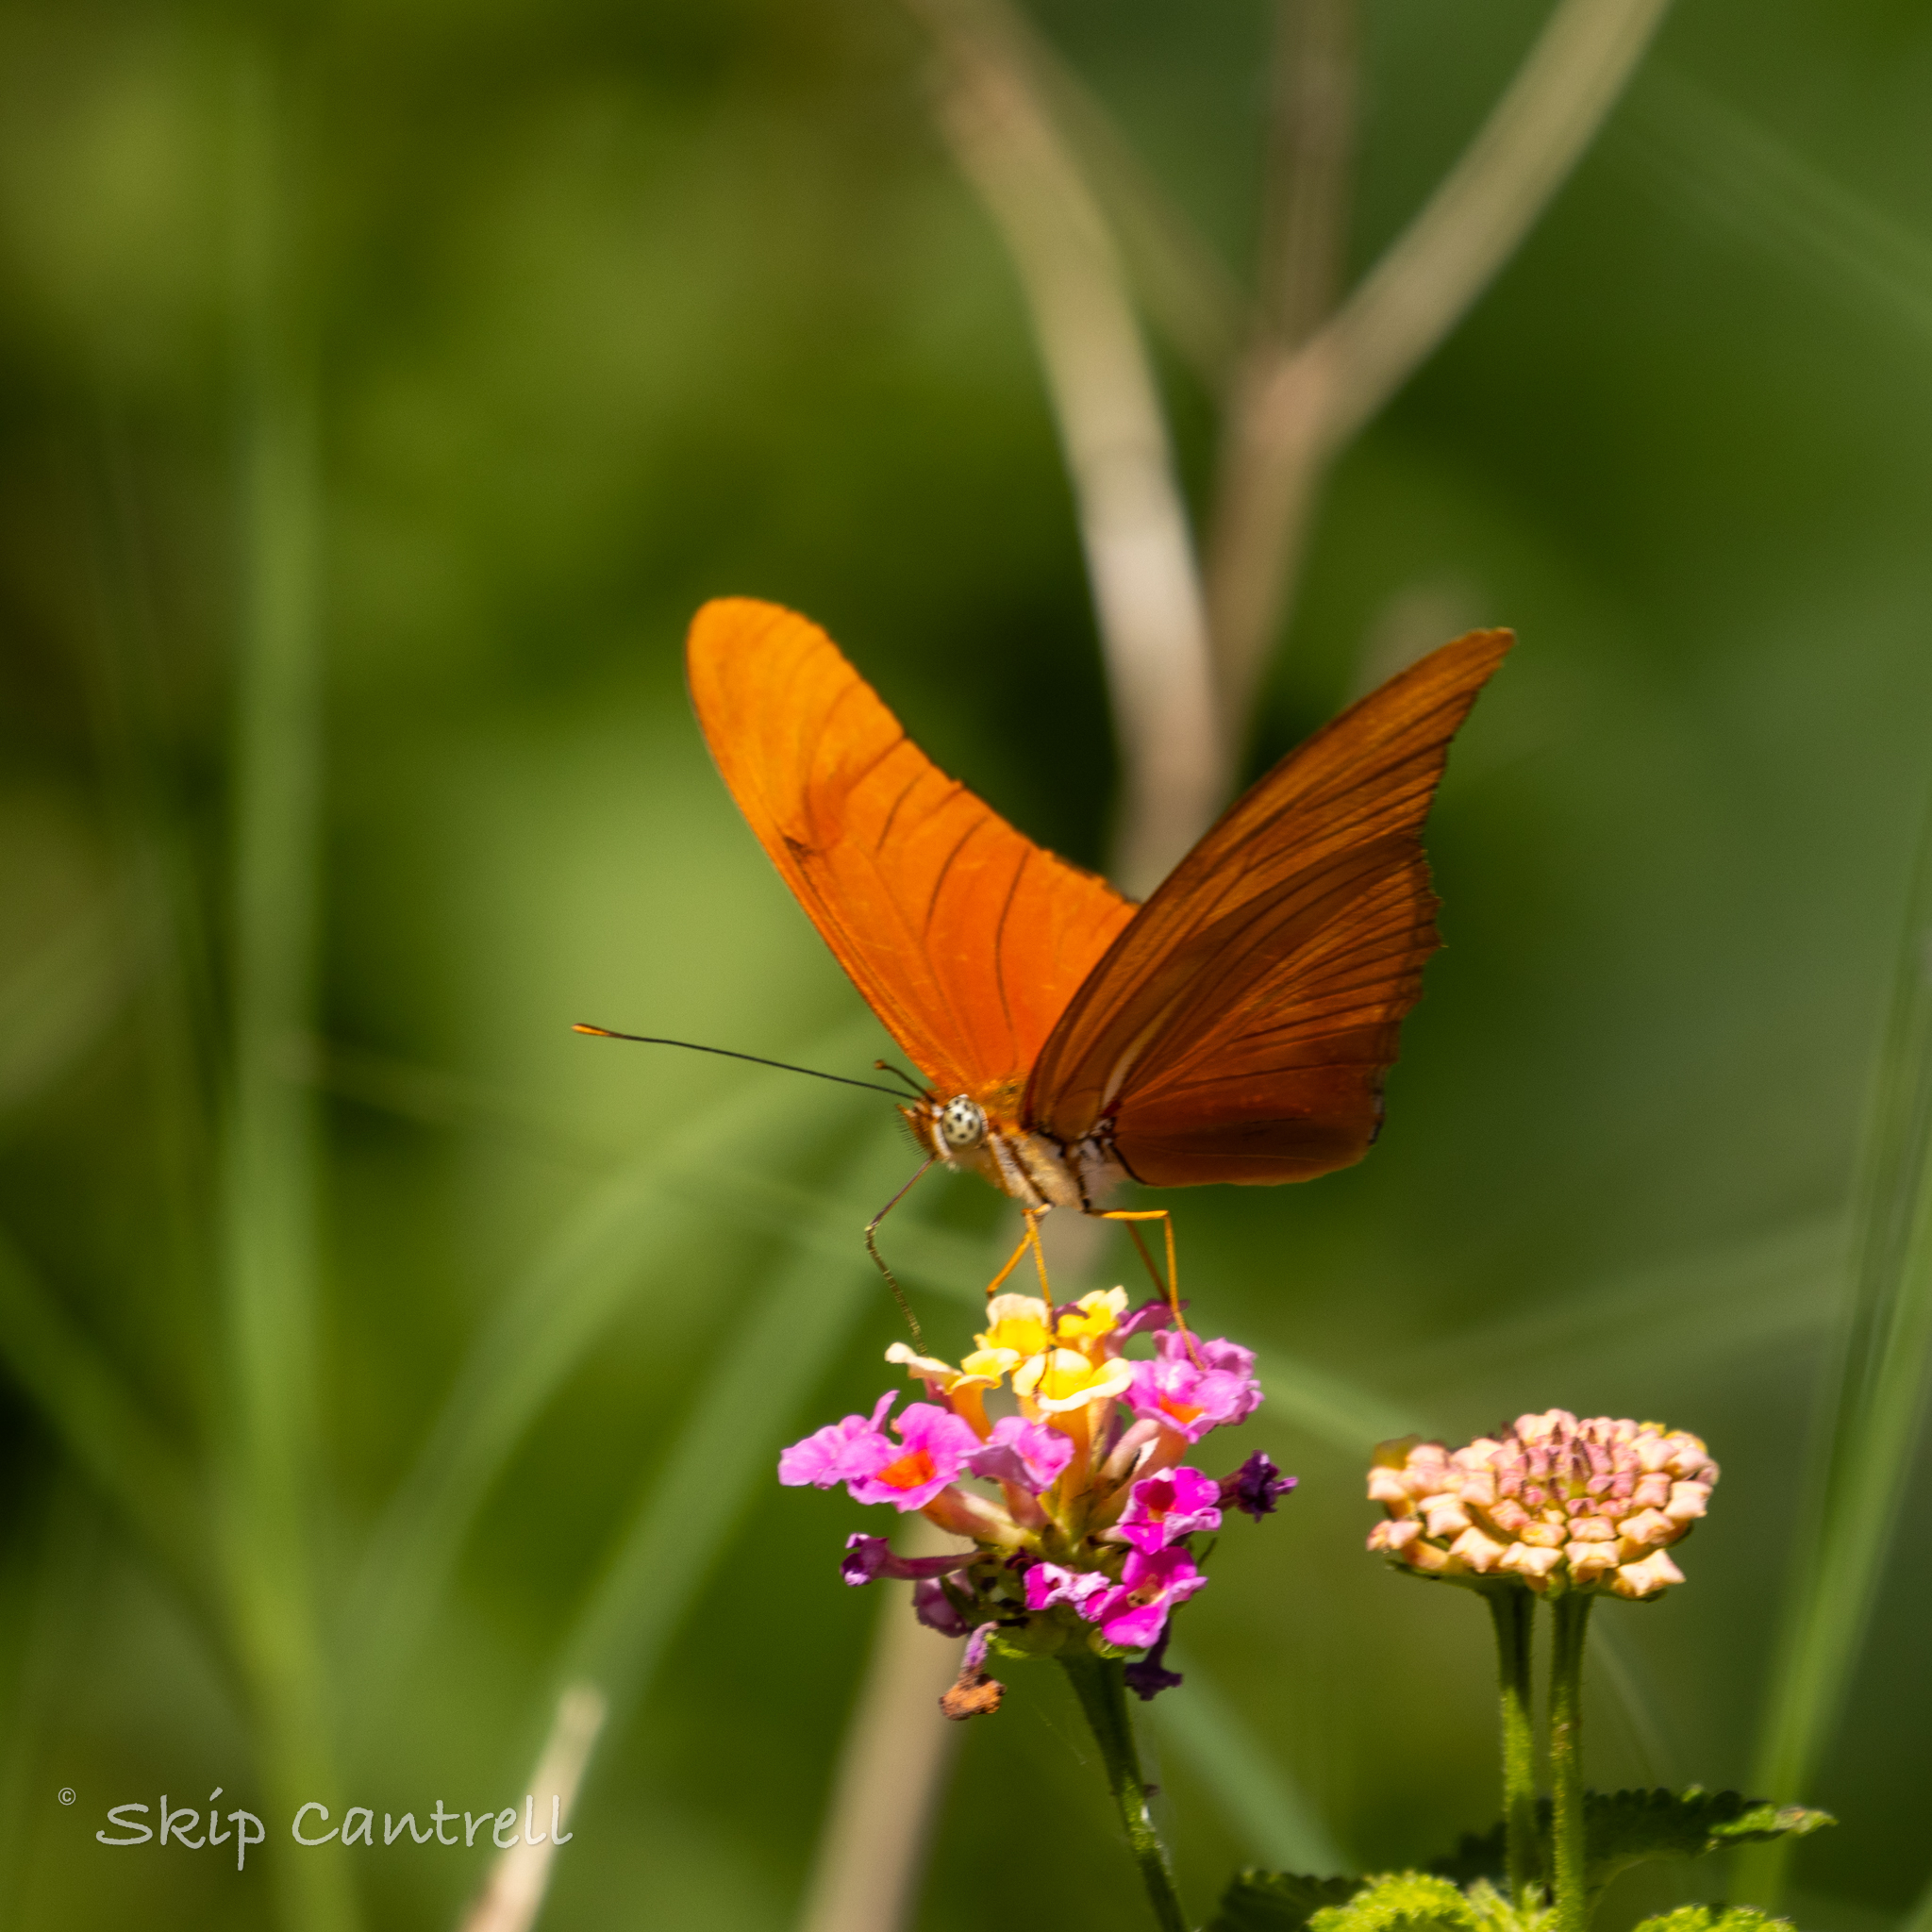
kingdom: Animalia
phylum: Arthropoda
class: Insecta
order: Lepidoptera
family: Nymphalidae
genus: Dryas
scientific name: Dryas iulia
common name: Flambeau
